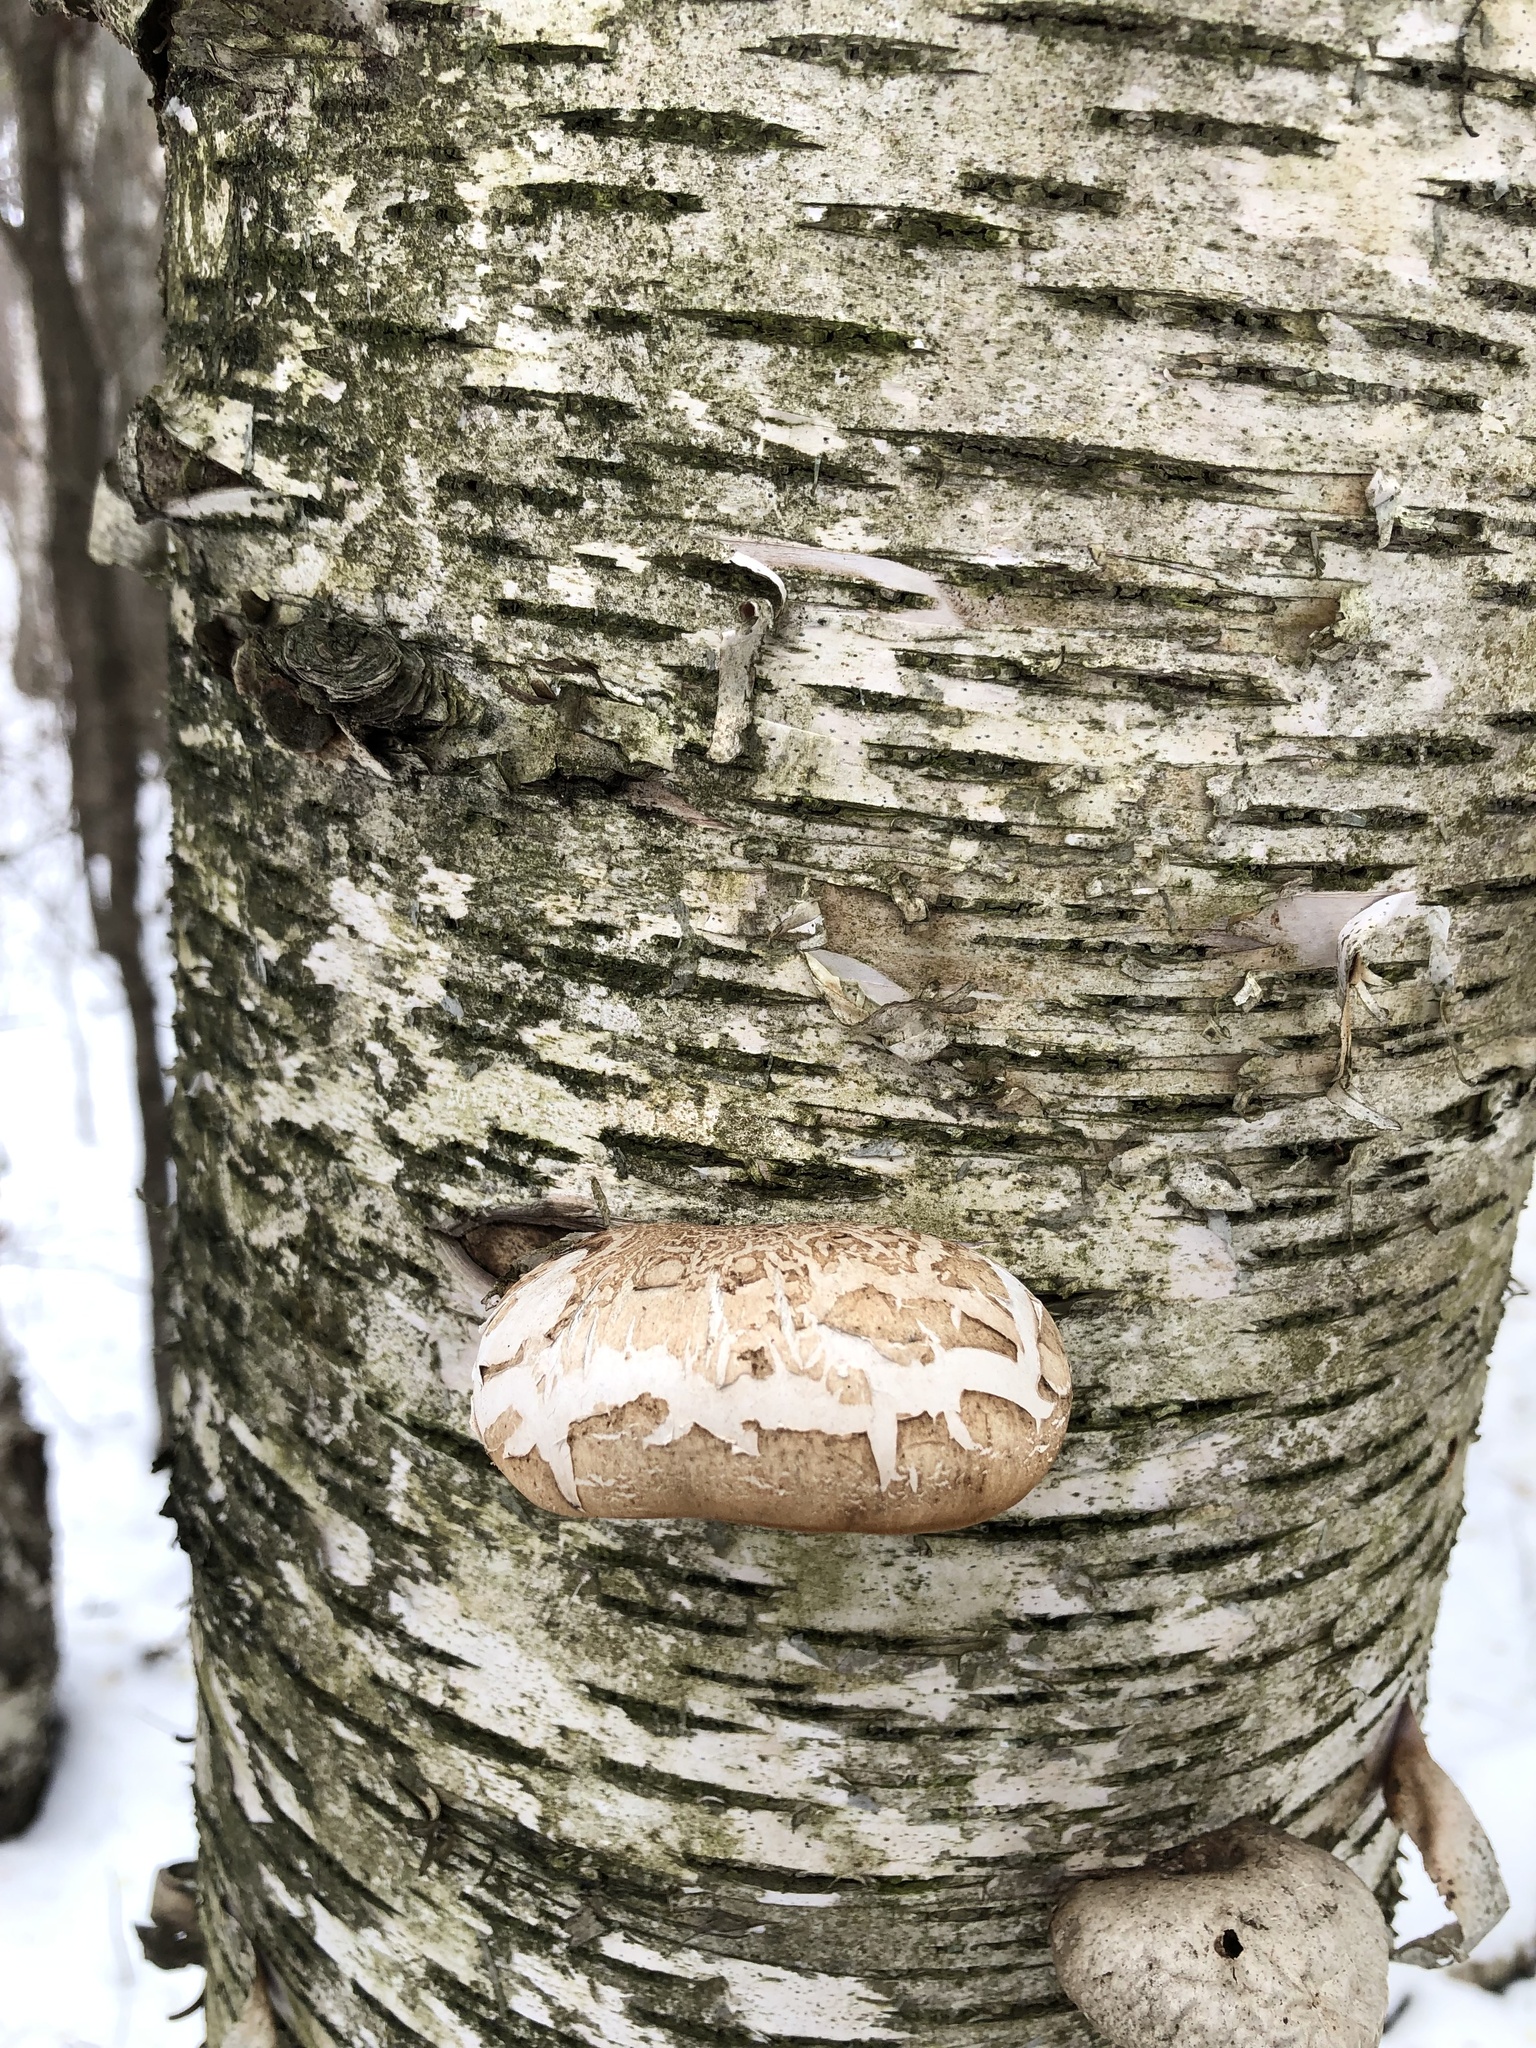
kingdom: Fungi
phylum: Basidiomycota
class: Agaricomycetes
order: Polyporales
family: Fomitopsidaceae
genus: Fomitopsis
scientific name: Fomitopsis betulina
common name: Birch polypore
